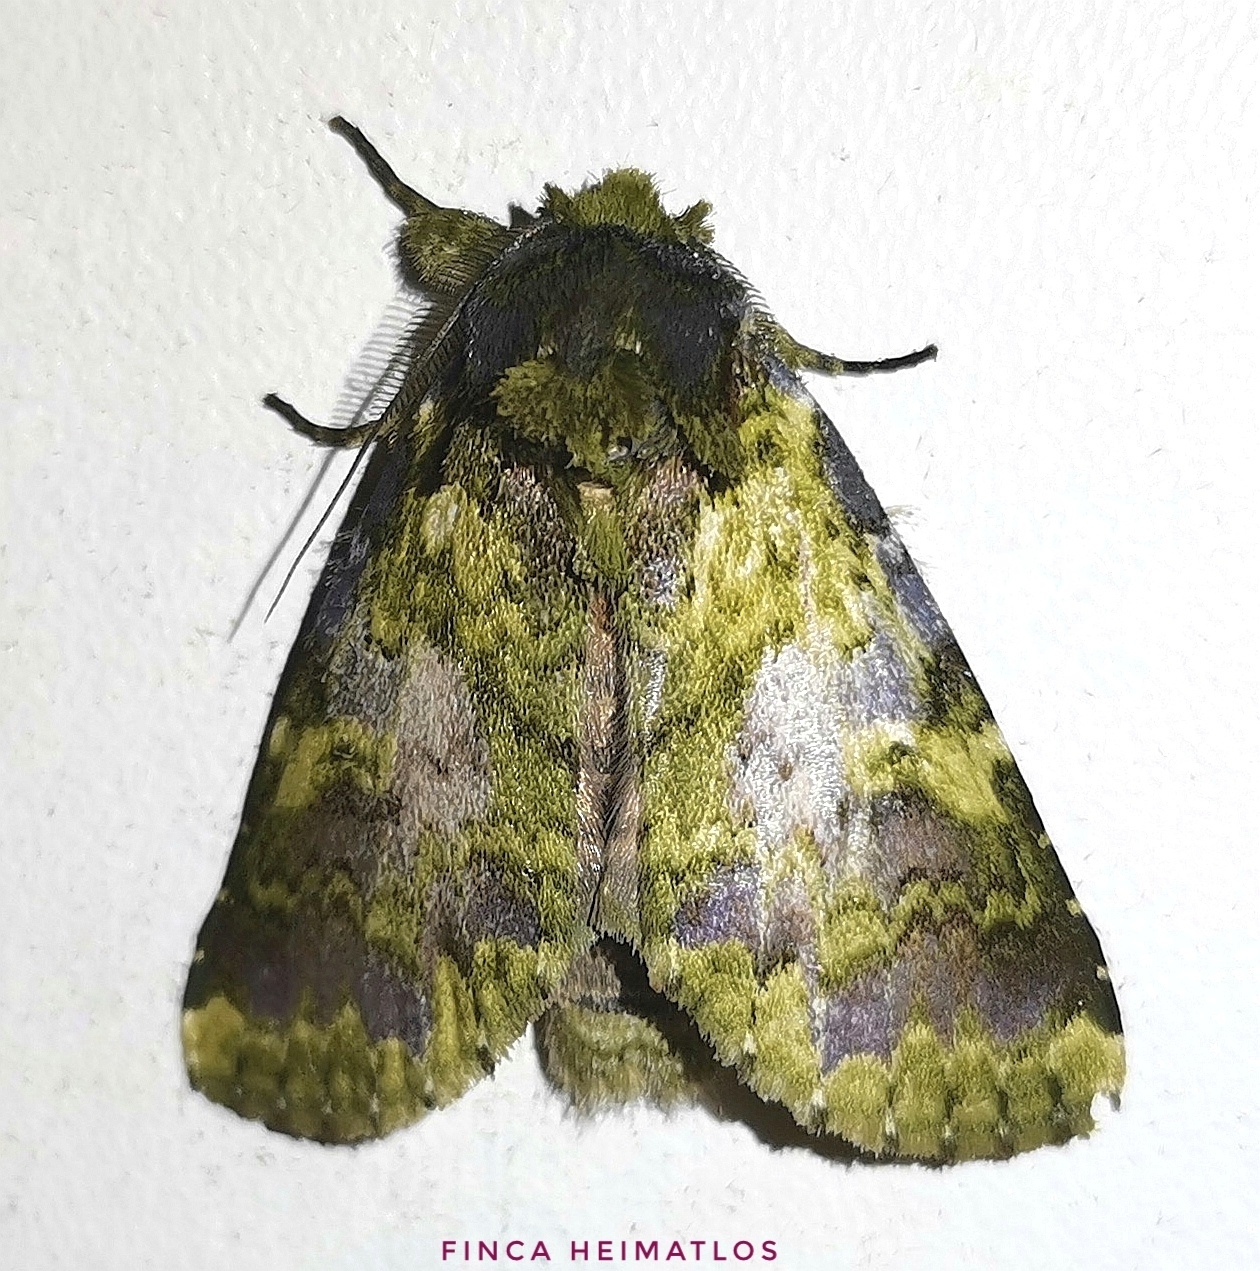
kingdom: Animalia
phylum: Arthropoda
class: Insecta
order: Lepidoptera
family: Notodontidae
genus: Amaricampa
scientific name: Amaricampa butori
